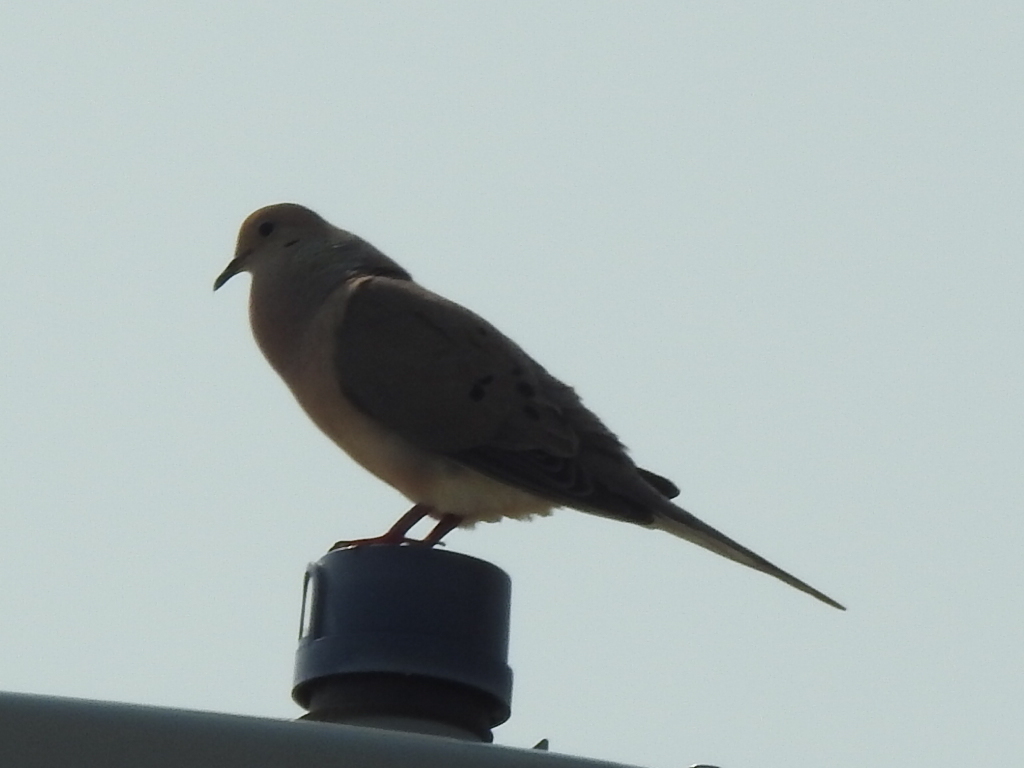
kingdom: Animalia
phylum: Chordata
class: Aves
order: Columbiformes
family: Columbidae
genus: Zenaida
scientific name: Zenaida macroura
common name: Mourning dove
